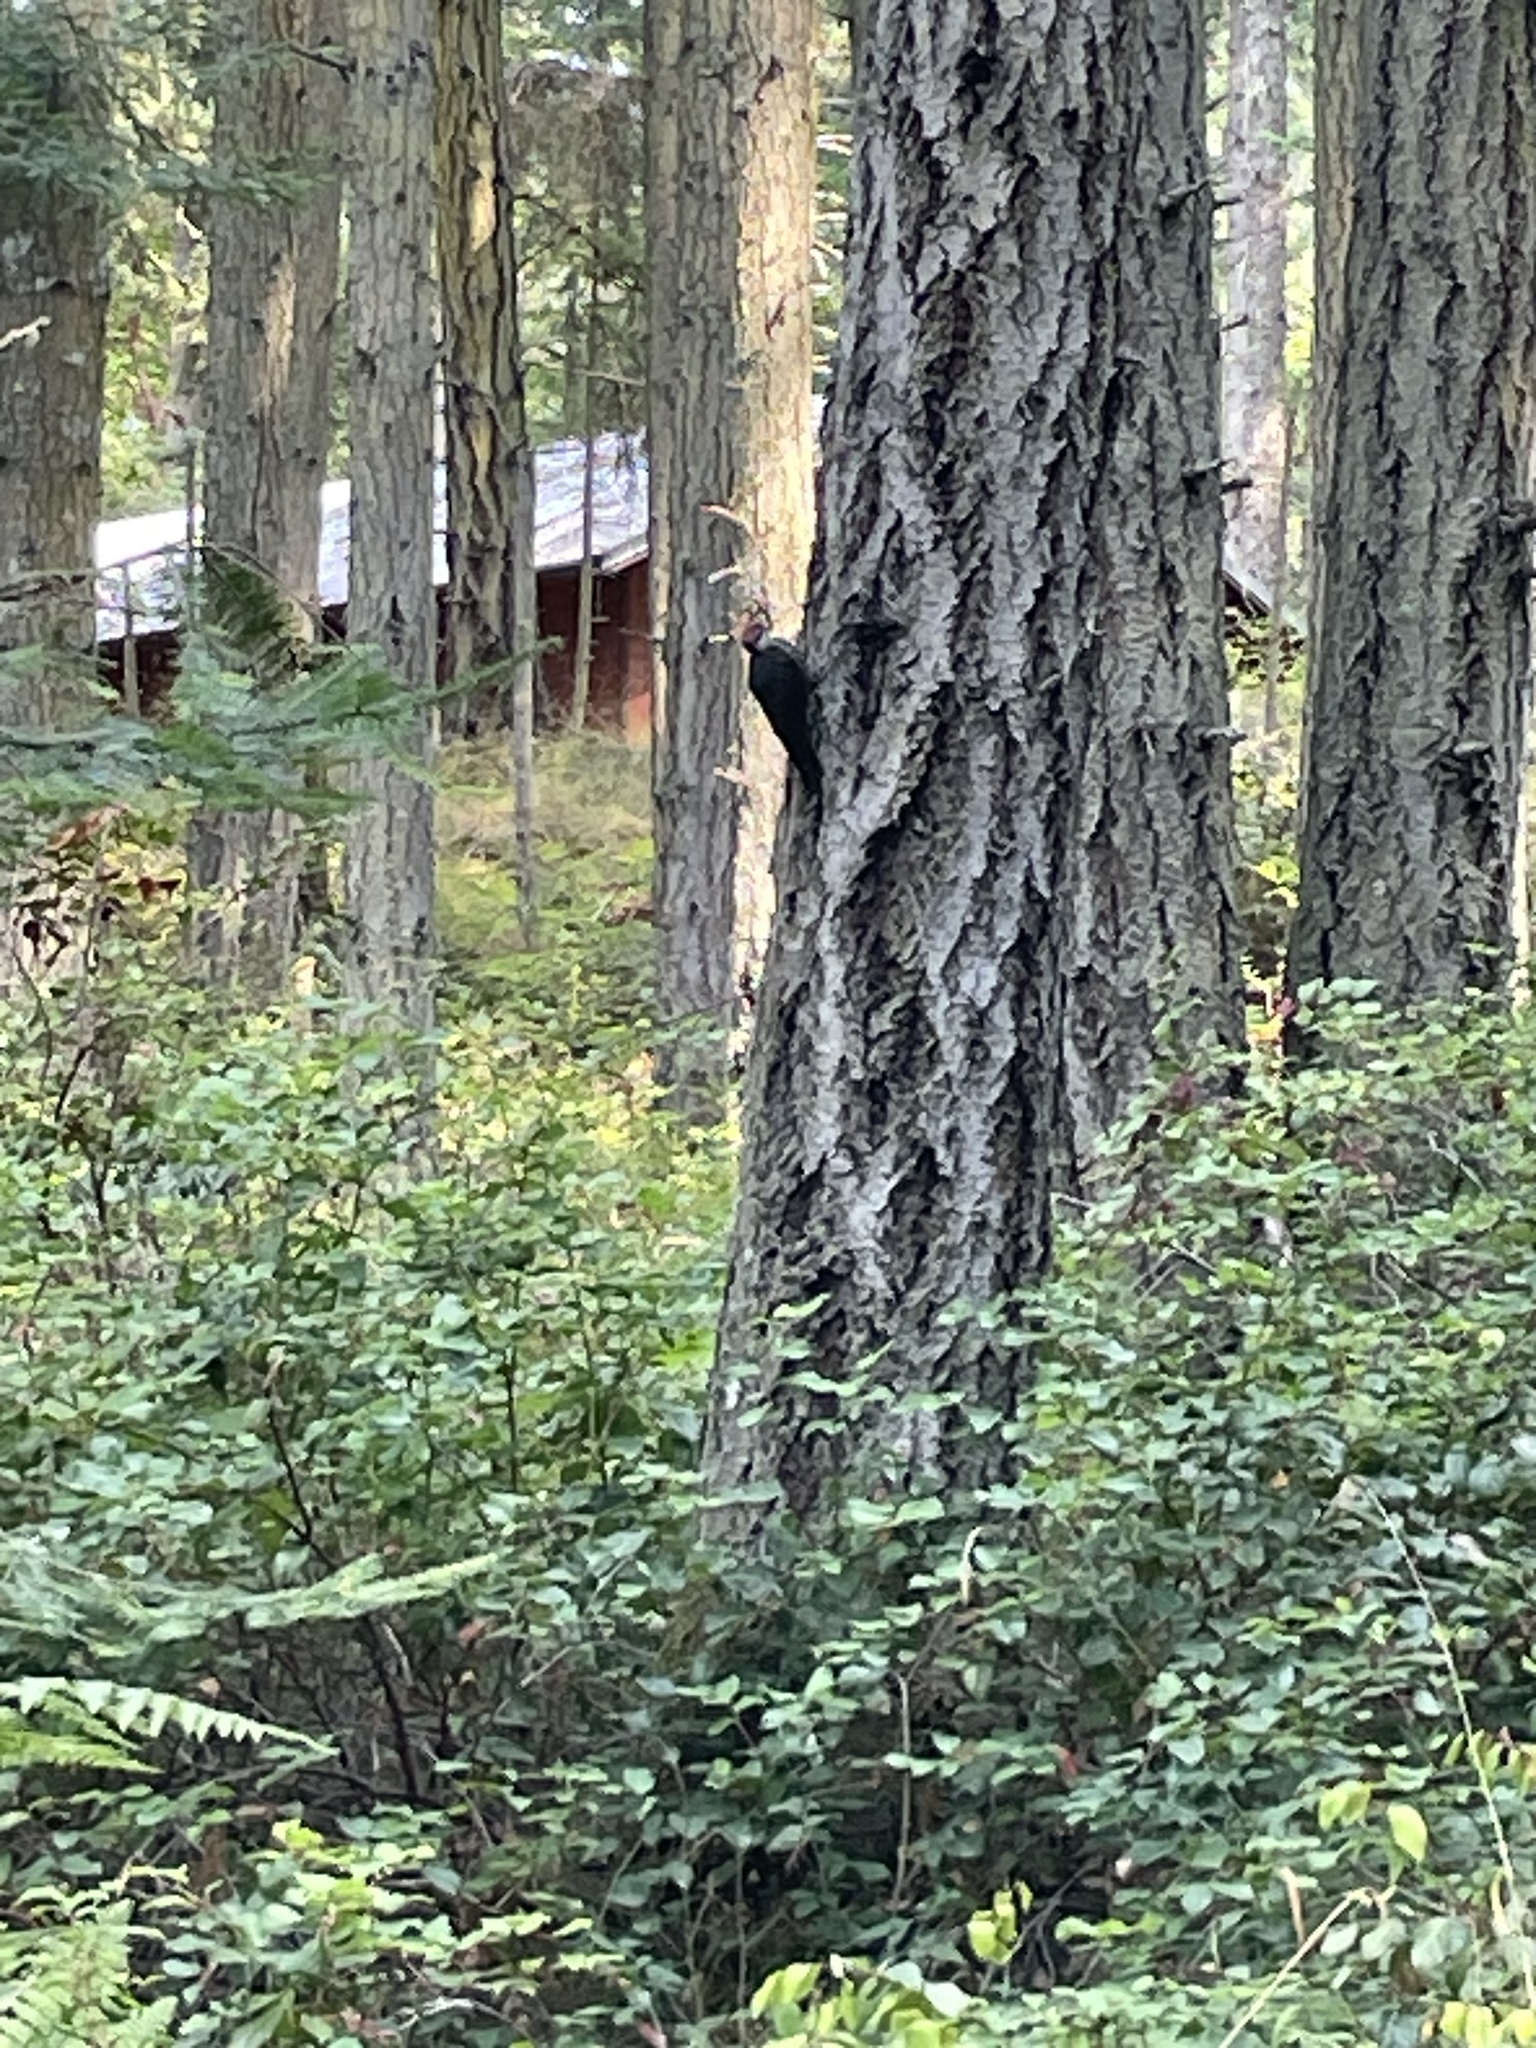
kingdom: Animalia
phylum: Chordata
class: Aves
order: Piciformes
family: Picidae
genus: Dryocopus
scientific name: Dryocopus pileatus
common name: Pileated woodpecker
